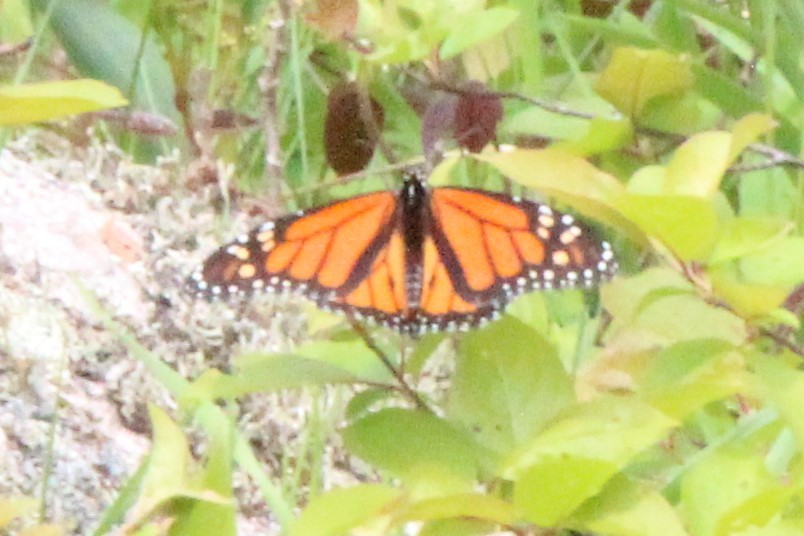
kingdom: Animalia
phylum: Arthropoda
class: Insecta
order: Lepidoptera
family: Nymphalidae
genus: Danaus
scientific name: Danaus plexippus
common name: Monarch
